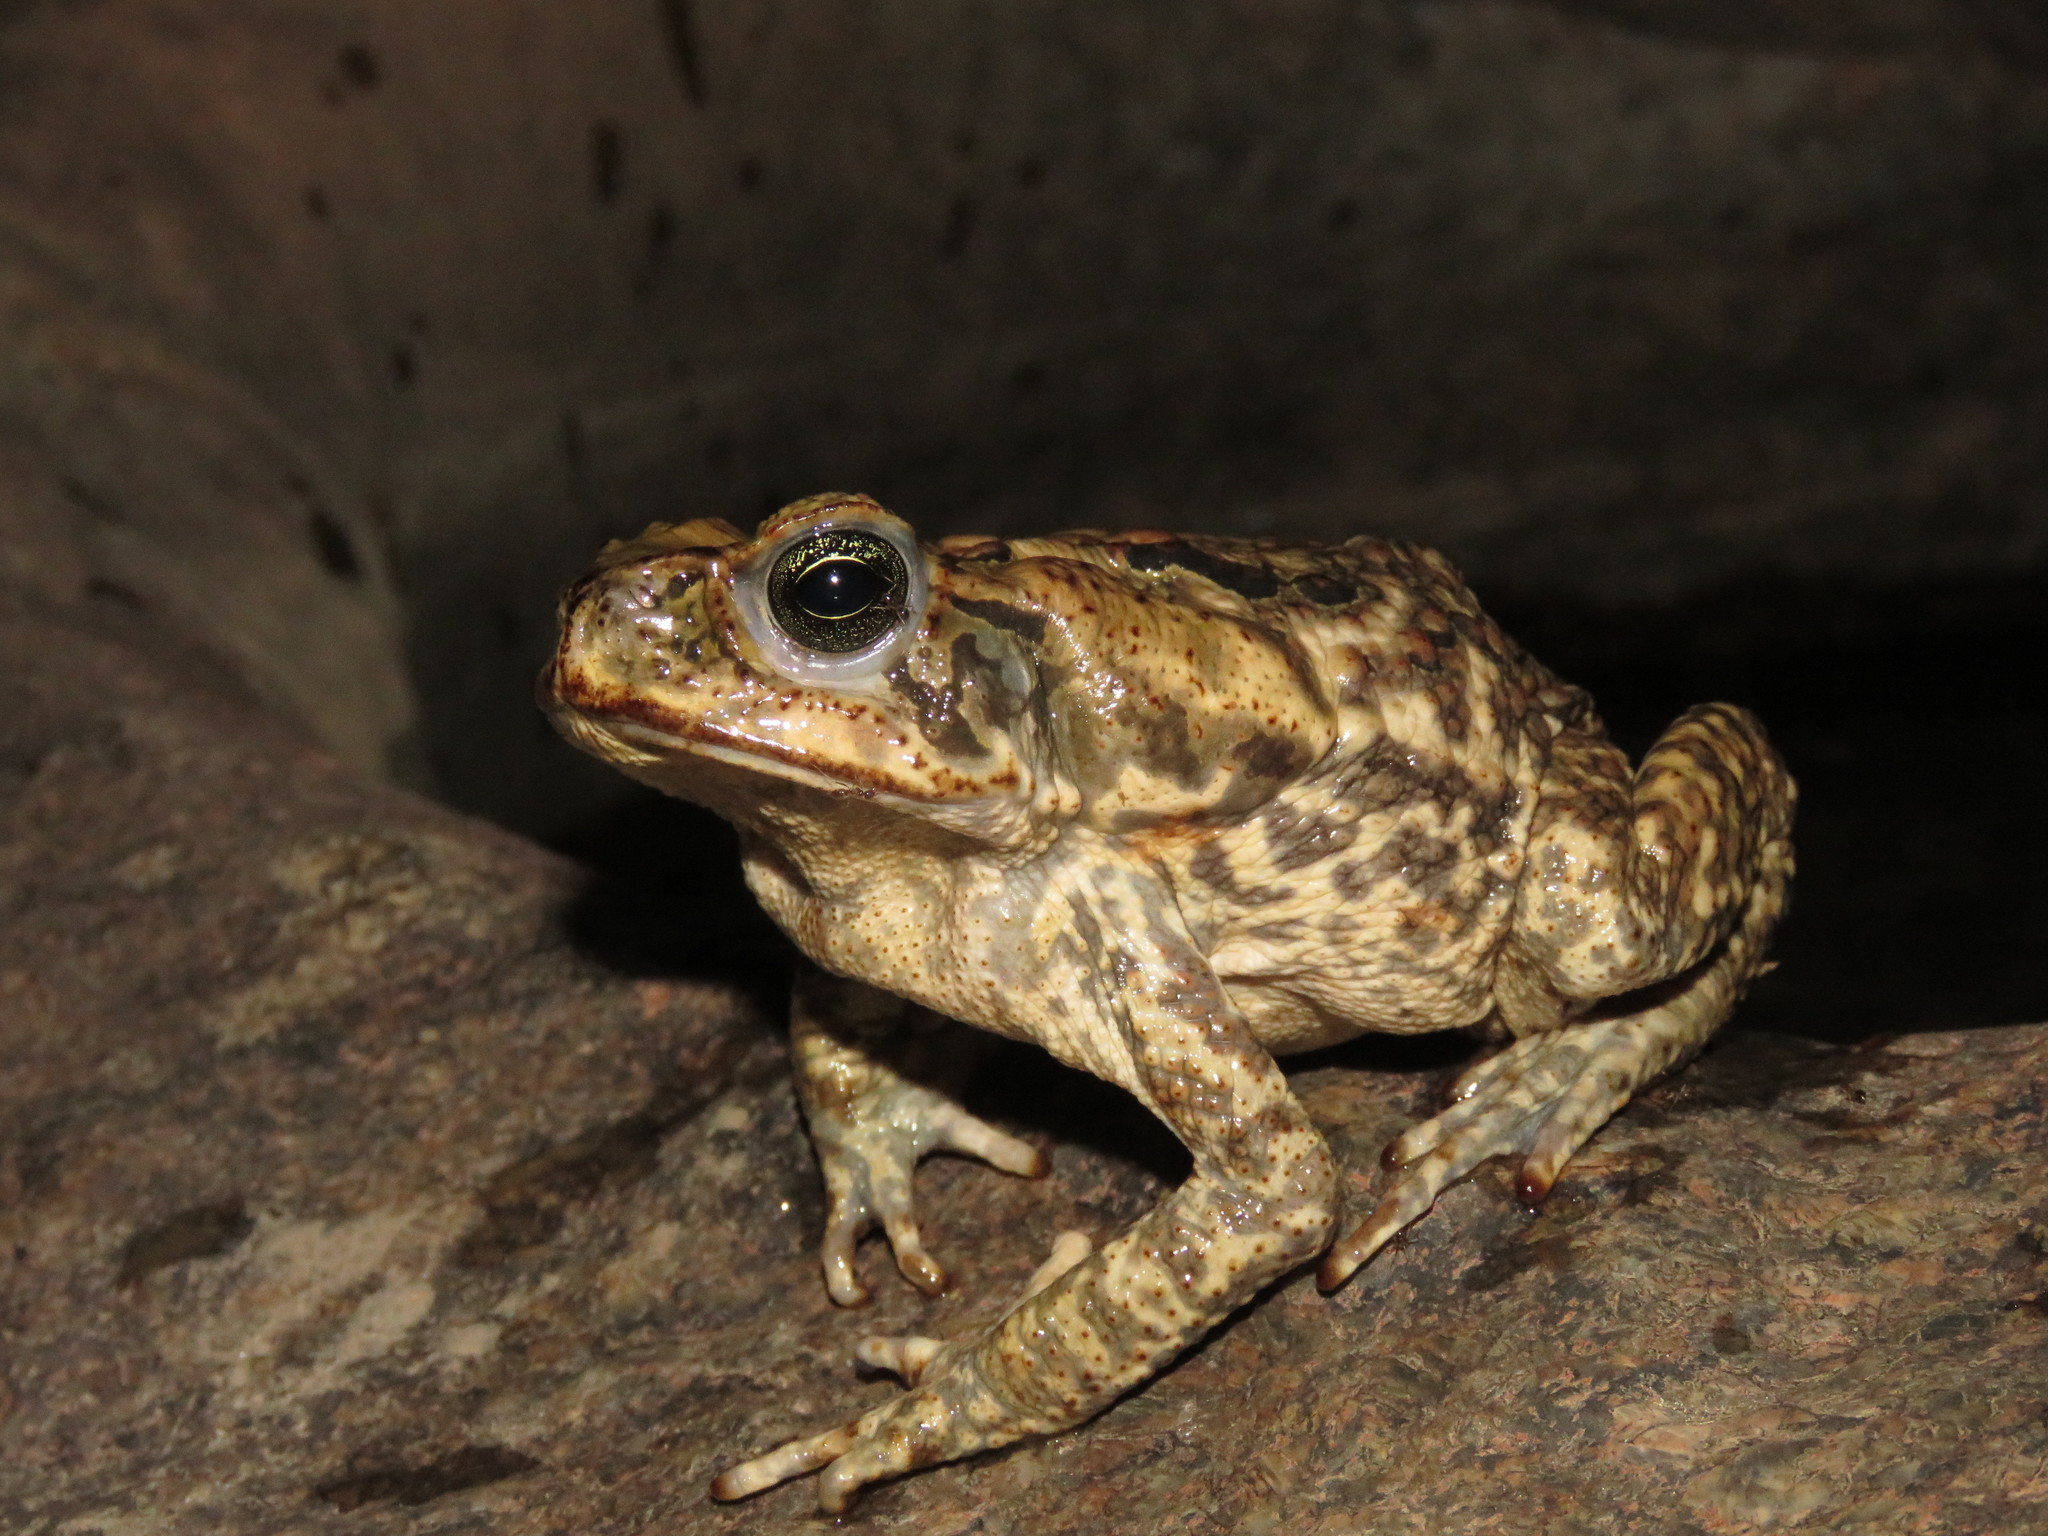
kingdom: Animalia
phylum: Chordata
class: Amphibia
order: Anura
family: Bufonidae
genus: Rhinella
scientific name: Rhinella marina
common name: Cane toad
